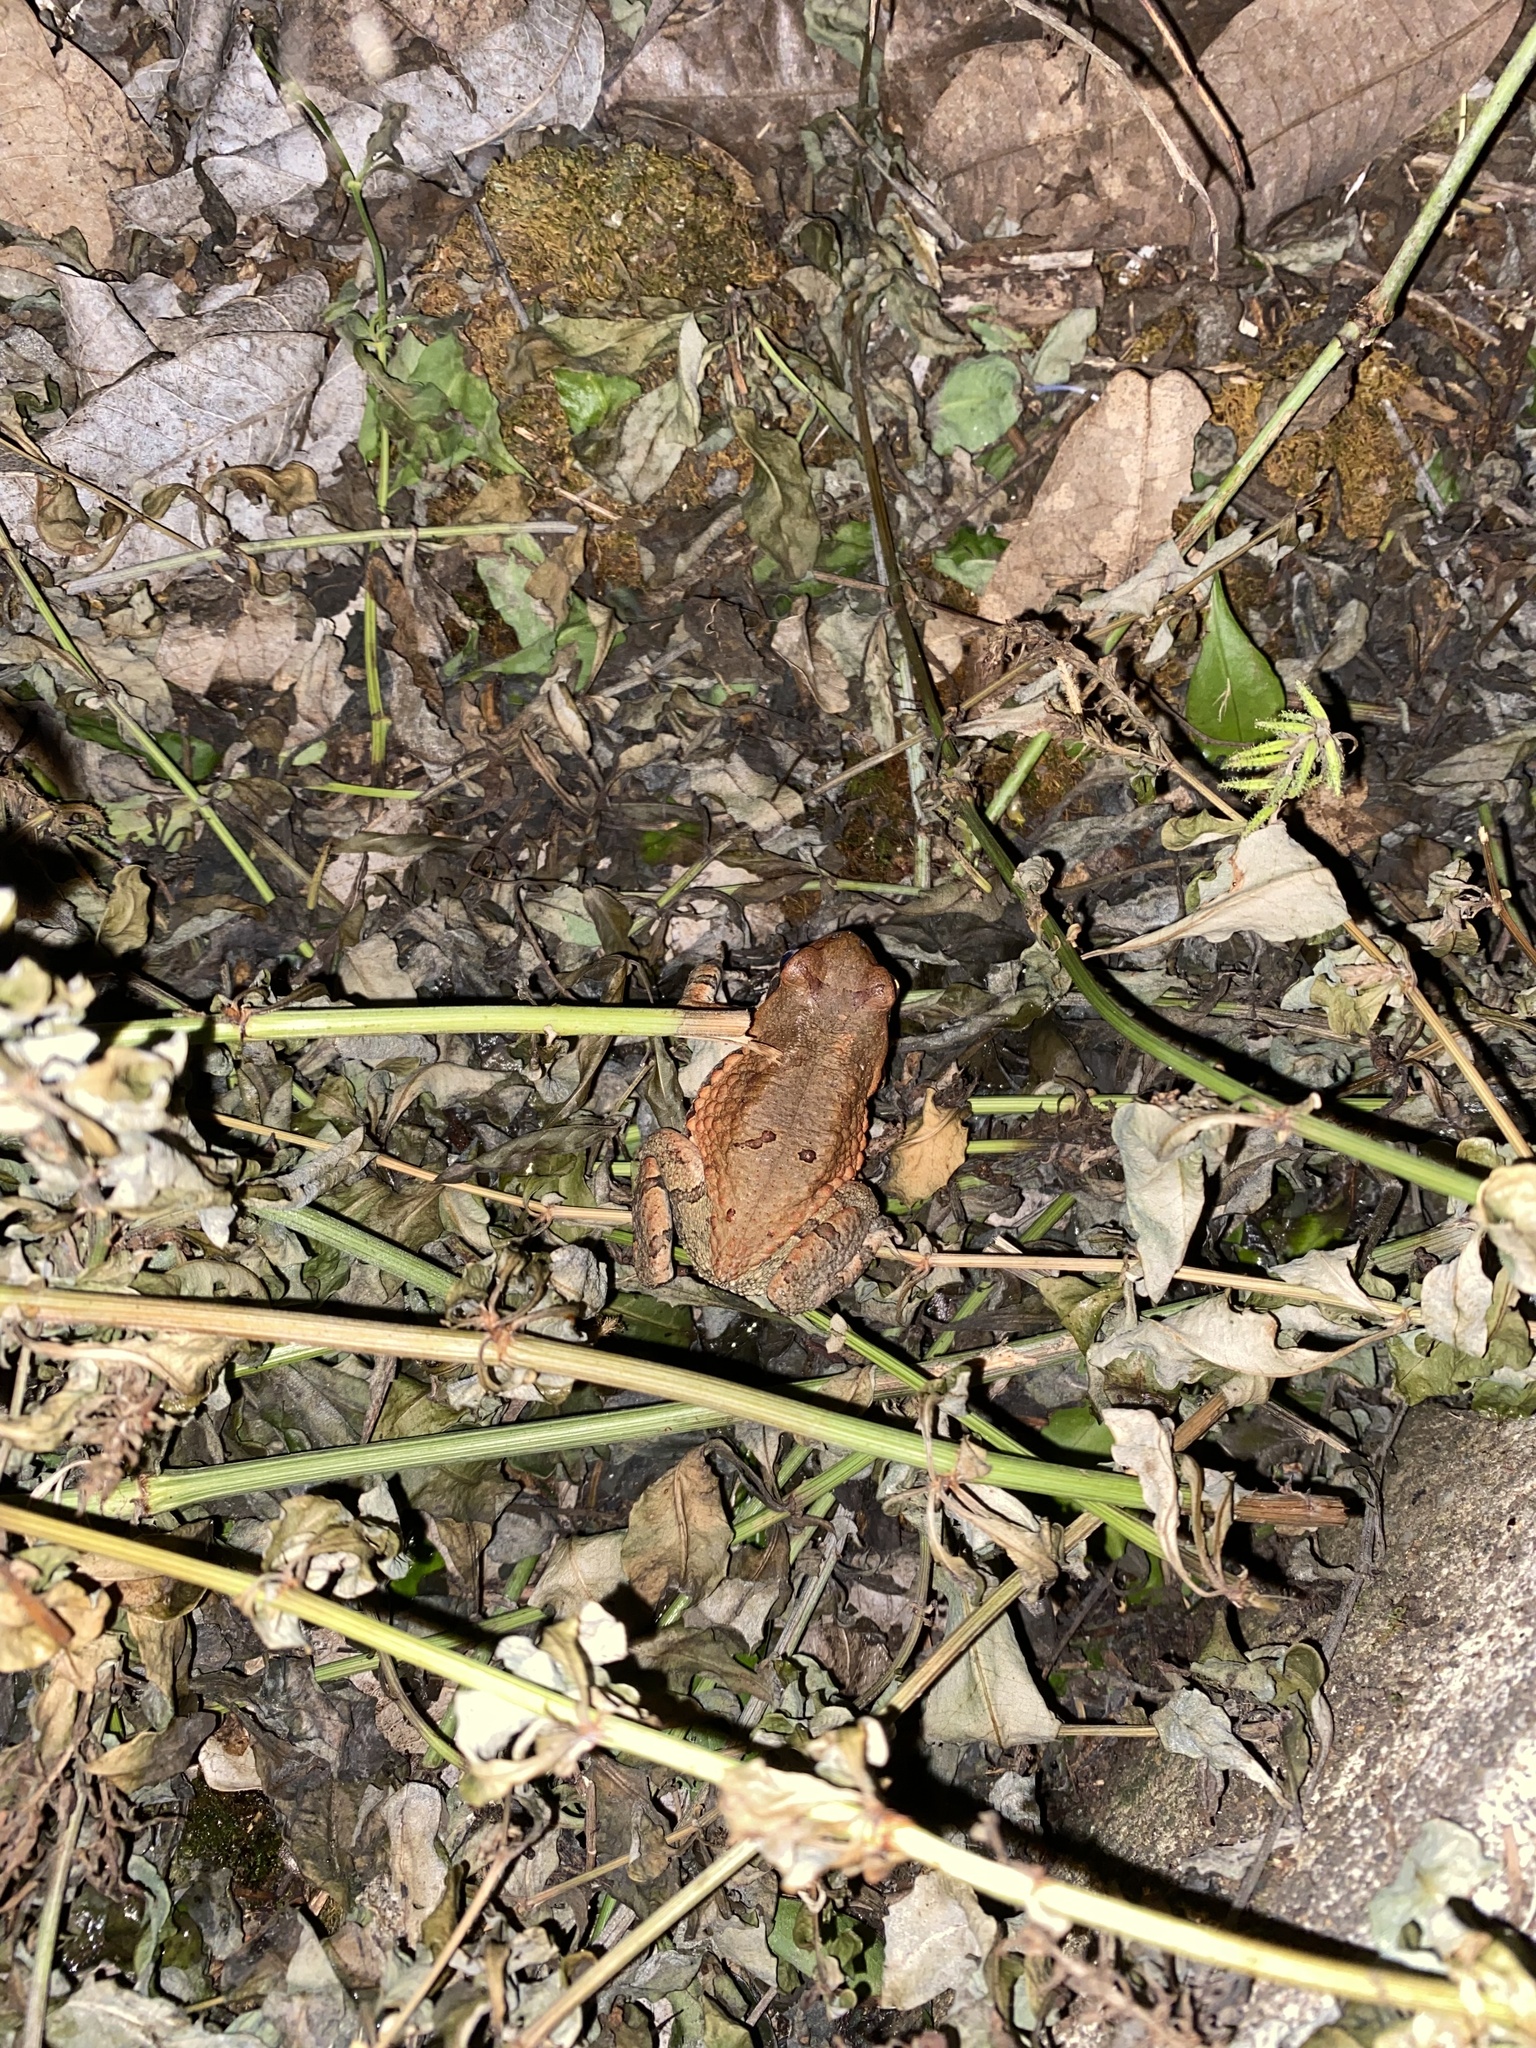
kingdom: Animalia
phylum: Chordata
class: Amphibia
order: Anura
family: Bufonidae
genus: Schismaderma
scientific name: Schismaderma carens
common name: African split-skin toad
